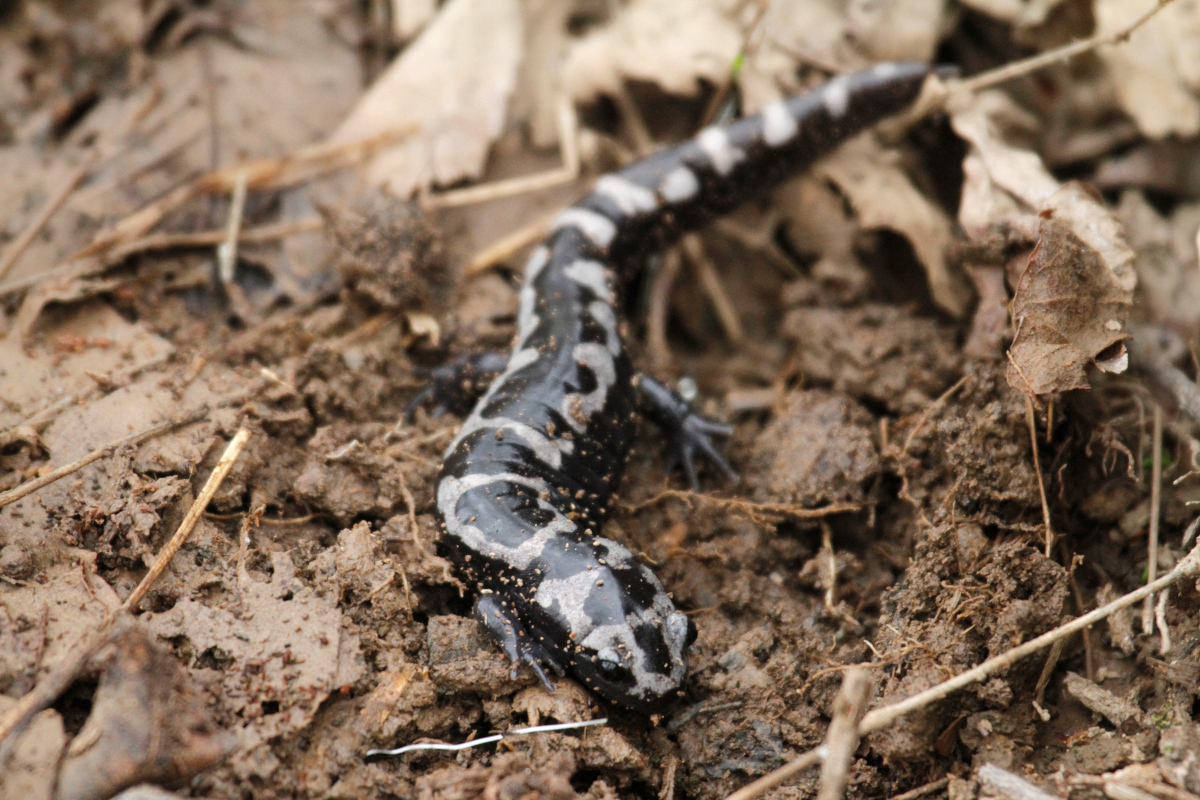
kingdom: Animalia
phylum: Chordata
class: Amphibia
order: Caudata
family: Ambystomatidae
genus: Ambystoma
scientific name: Ambystoma opacum
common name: Marbled salamander
